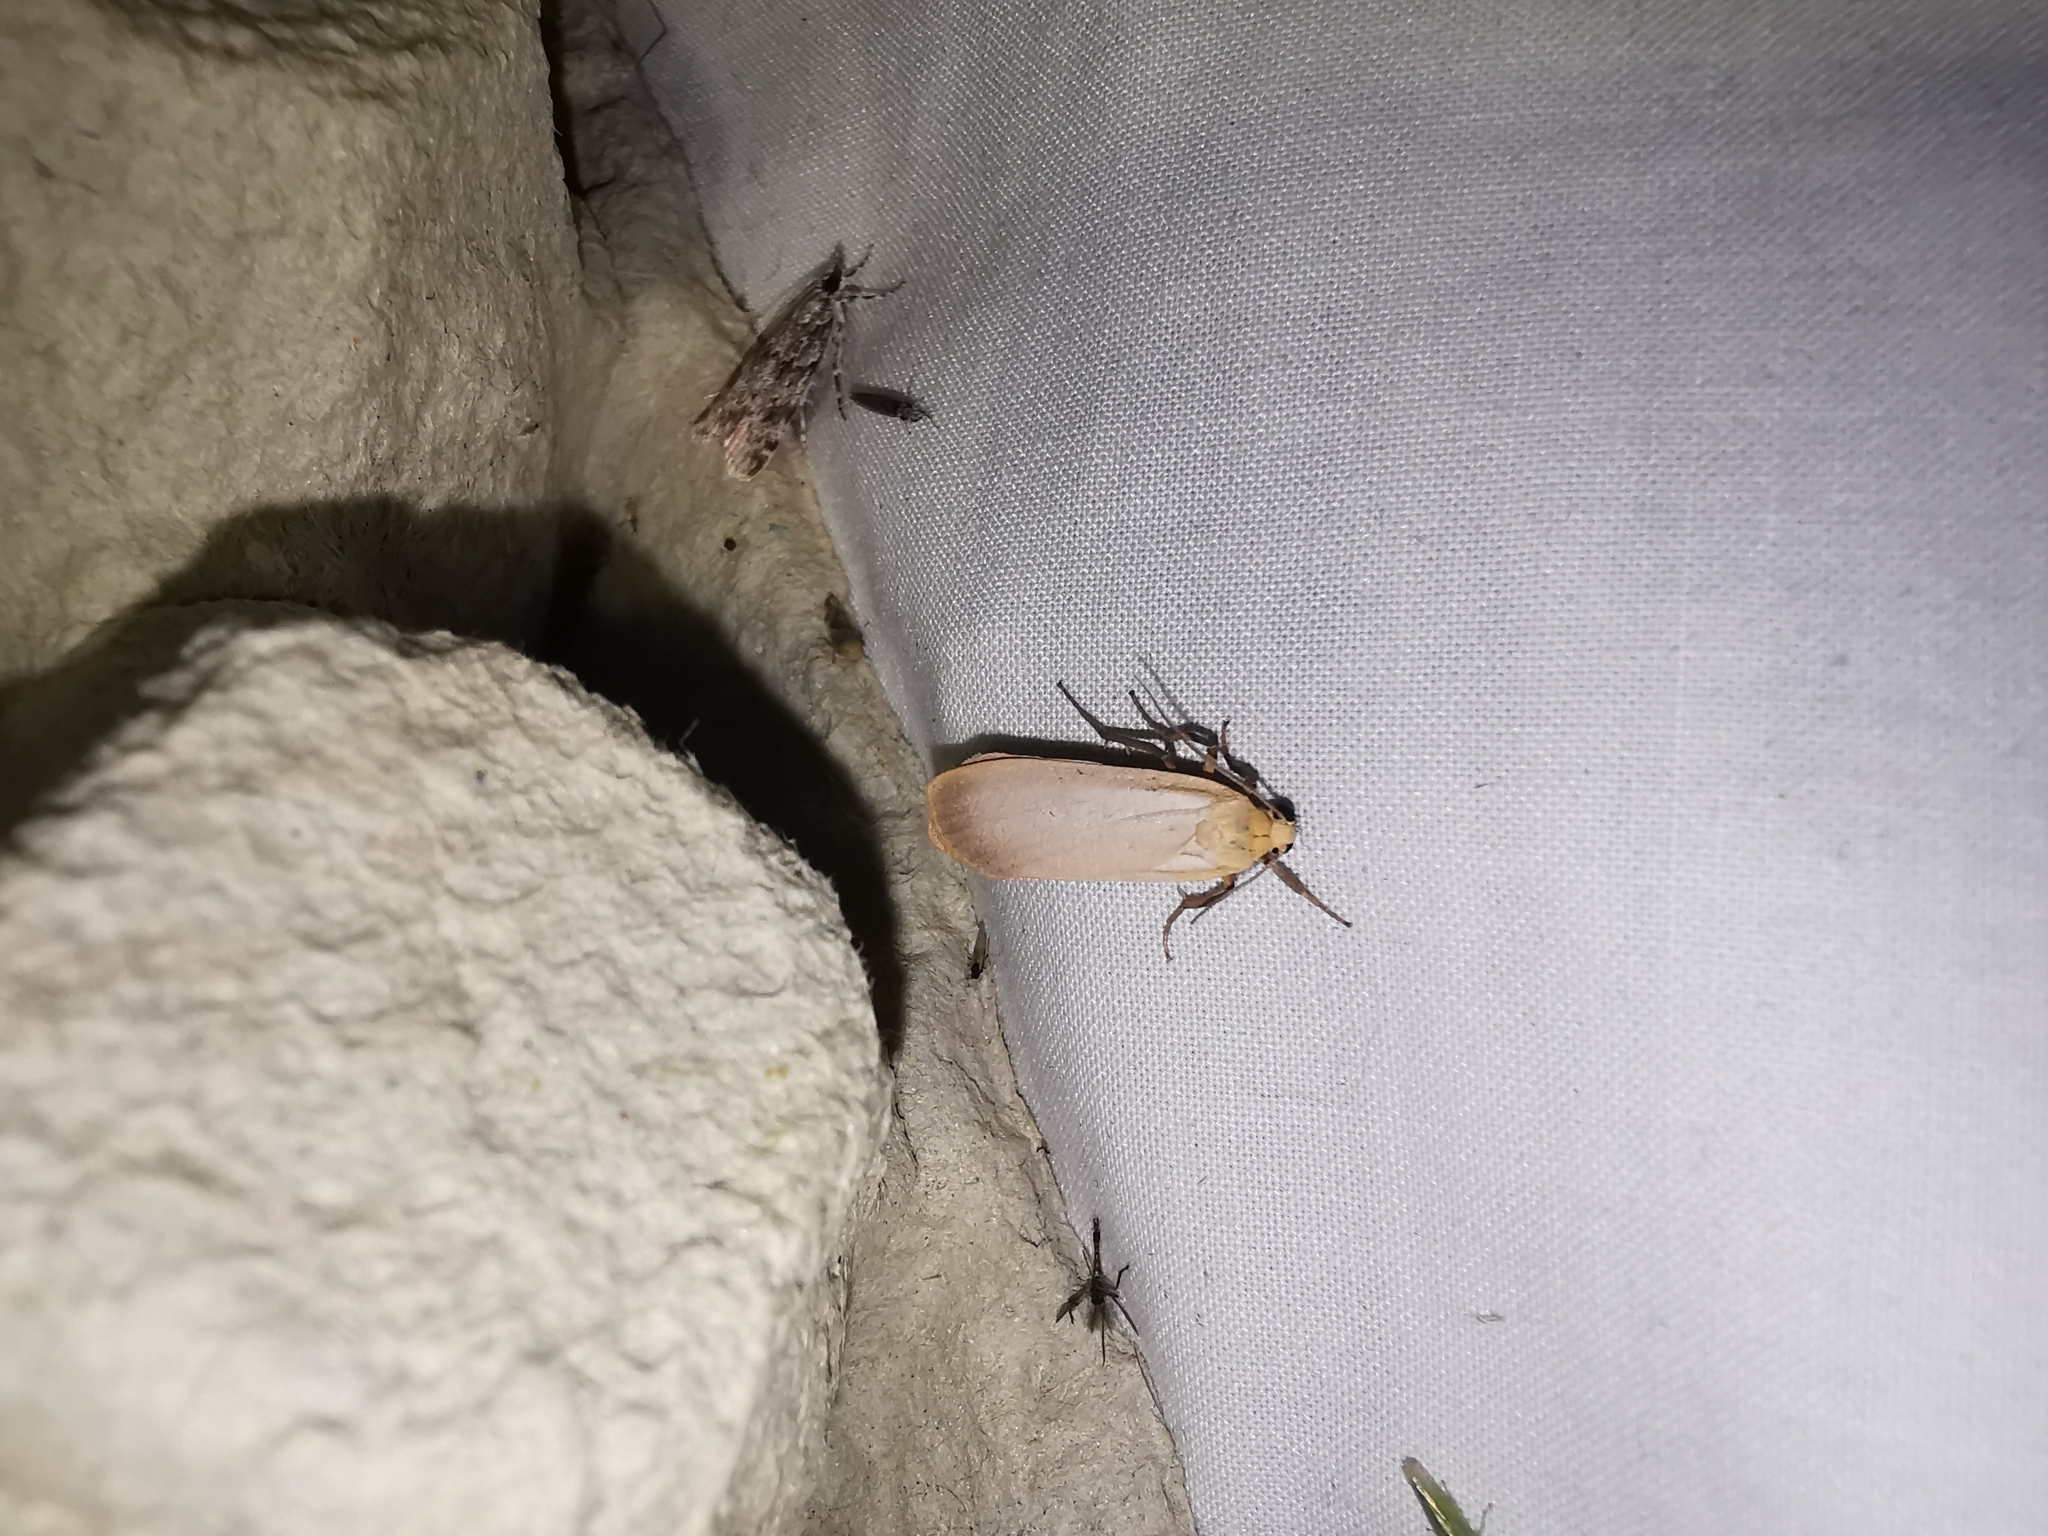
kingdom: Animalia
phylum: Arthropoda
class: Insecta
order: Lepidoptera
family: Erebidae
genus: Katha
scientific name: Katha depressa
